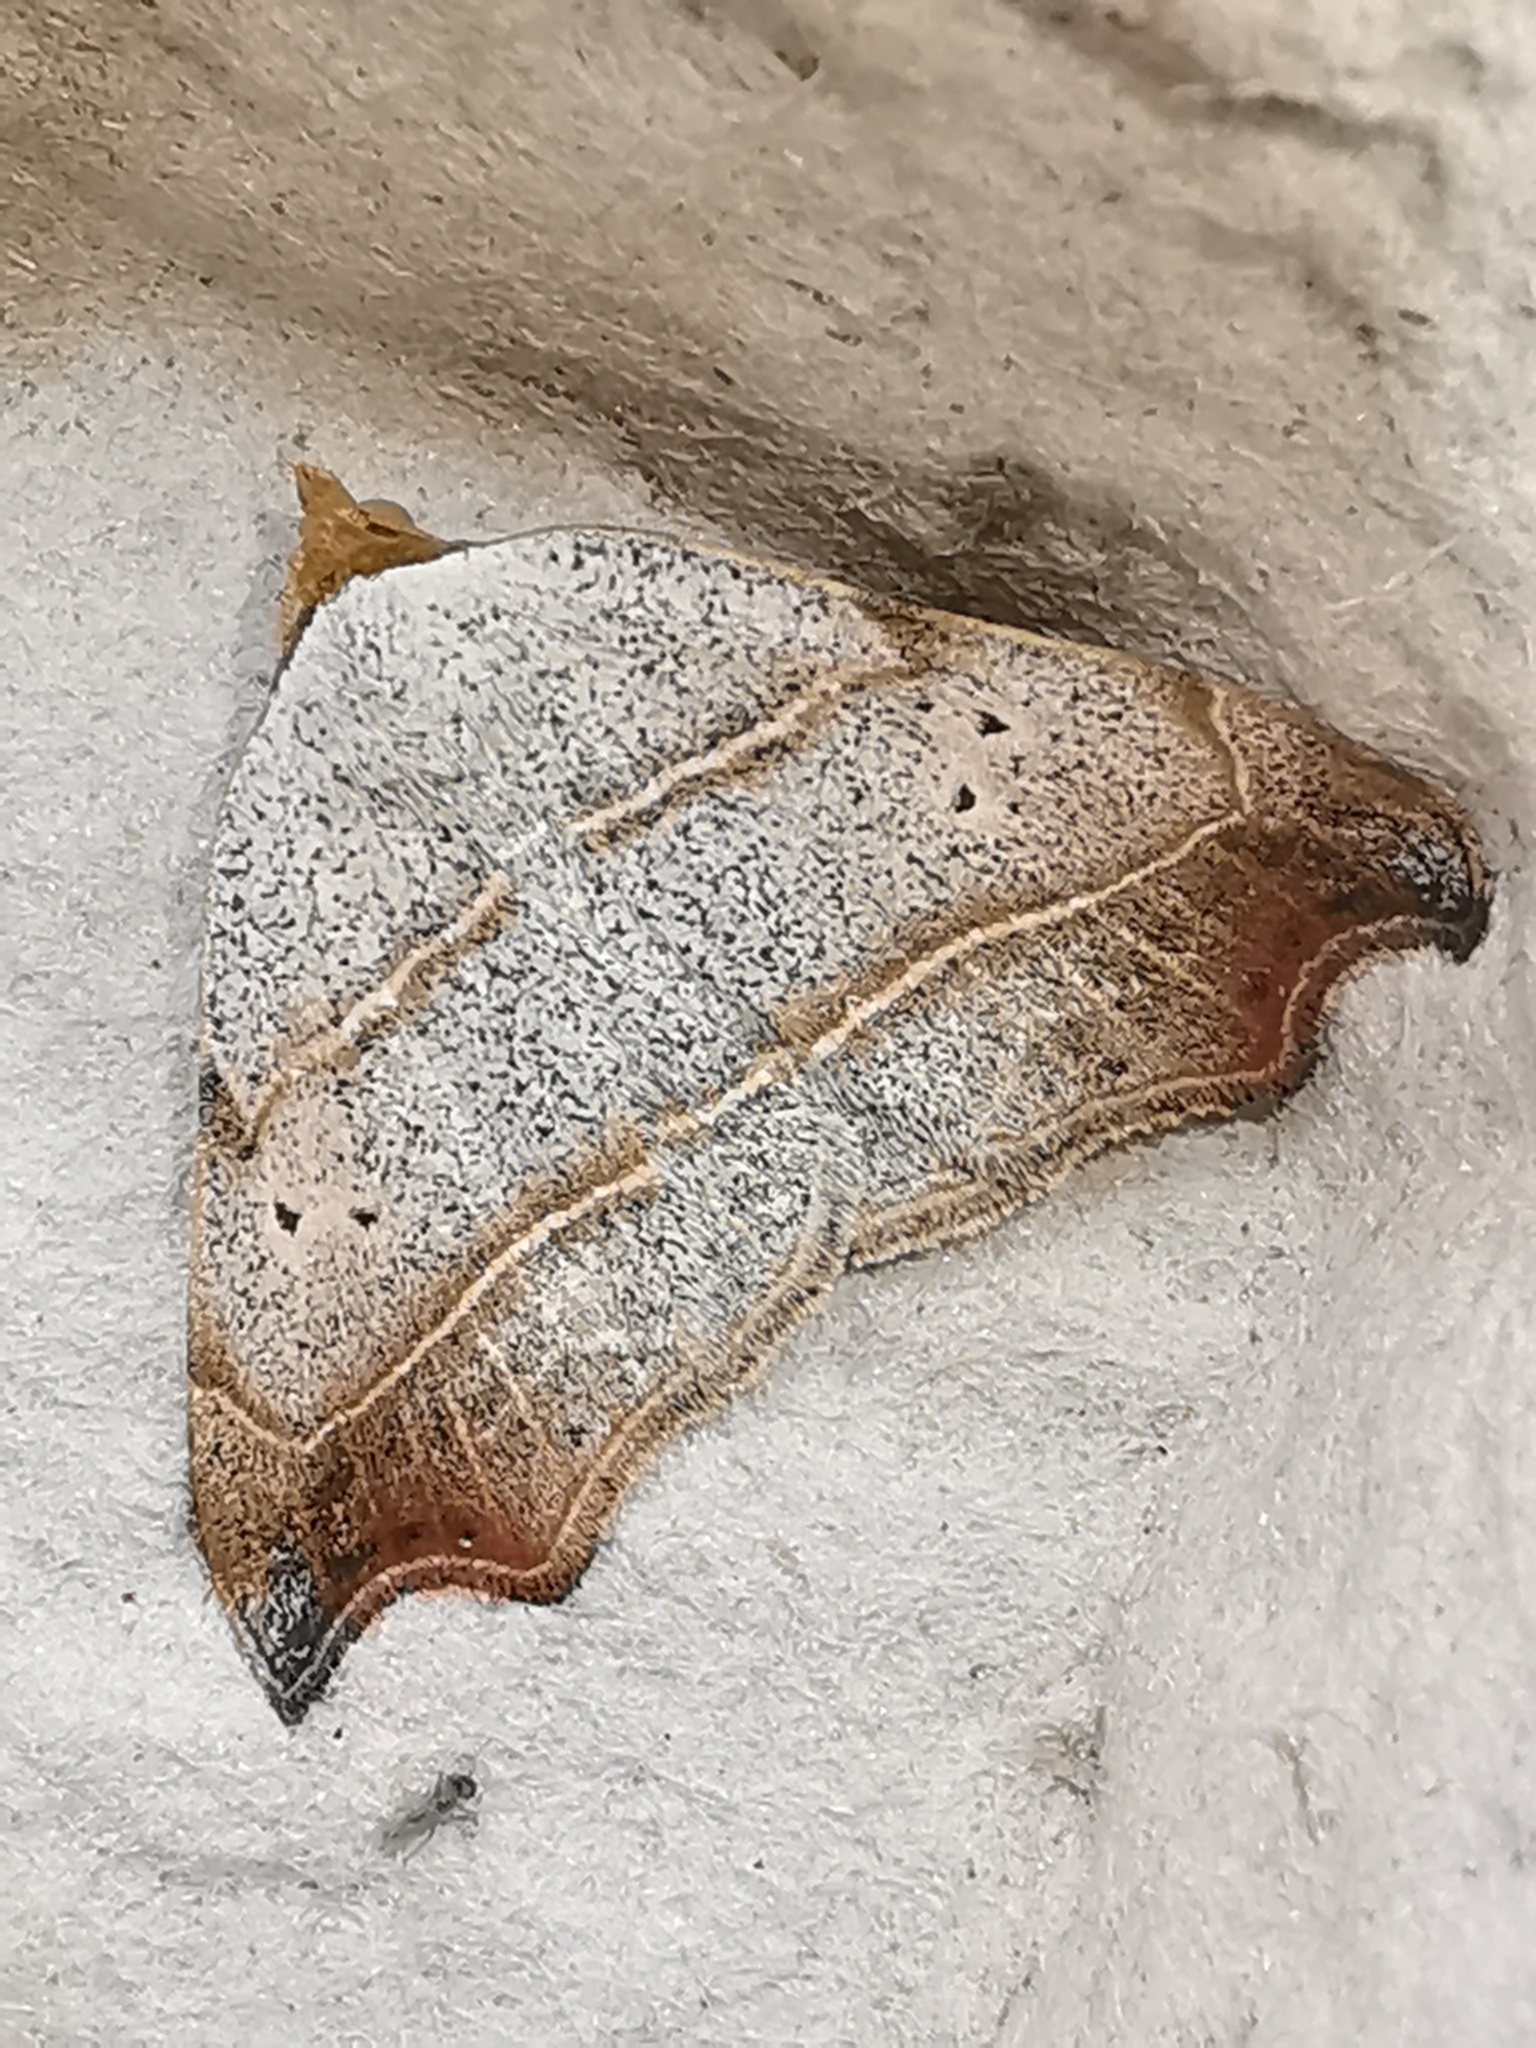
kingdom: Animalia
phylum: Arthropoda
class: Insecta
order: Lepidoptera
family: Erebidae
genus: Laspeyria
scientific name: Laspeyria flexula
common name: Beautiful hook-tip
